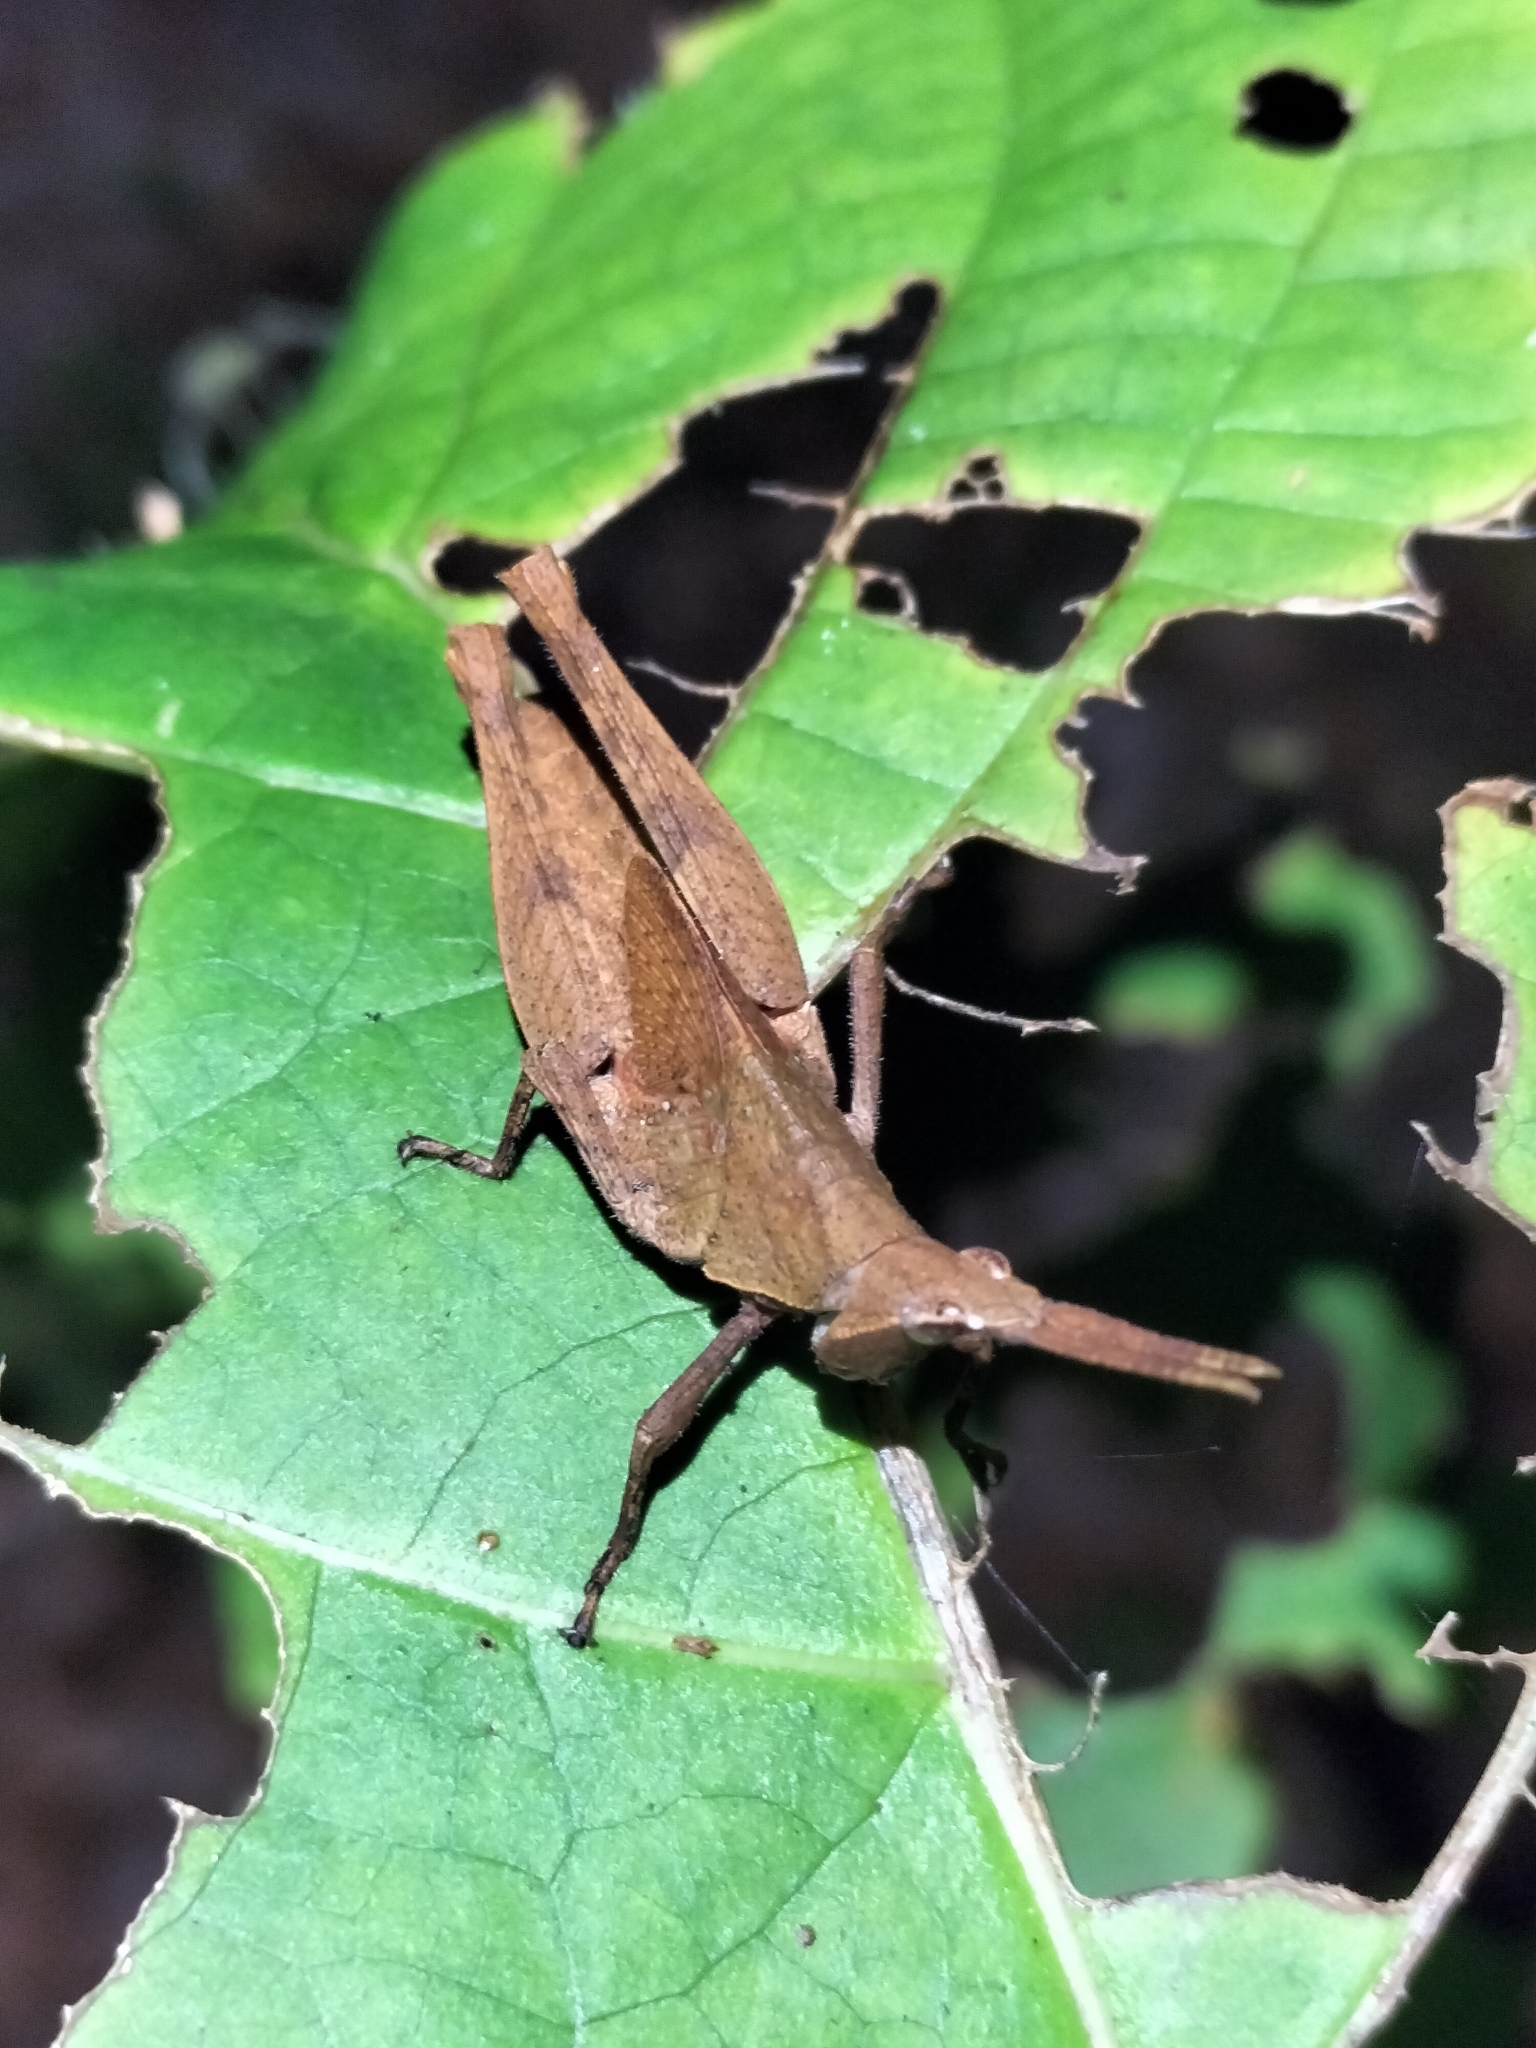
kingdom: Animalia
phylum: Arthropoda
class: Insecta
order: Orthoptera
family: Pyrgomorphidae
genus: Desmoptera
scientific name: Desmoptera truncatipennis
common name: Large forest pyrgomorph
